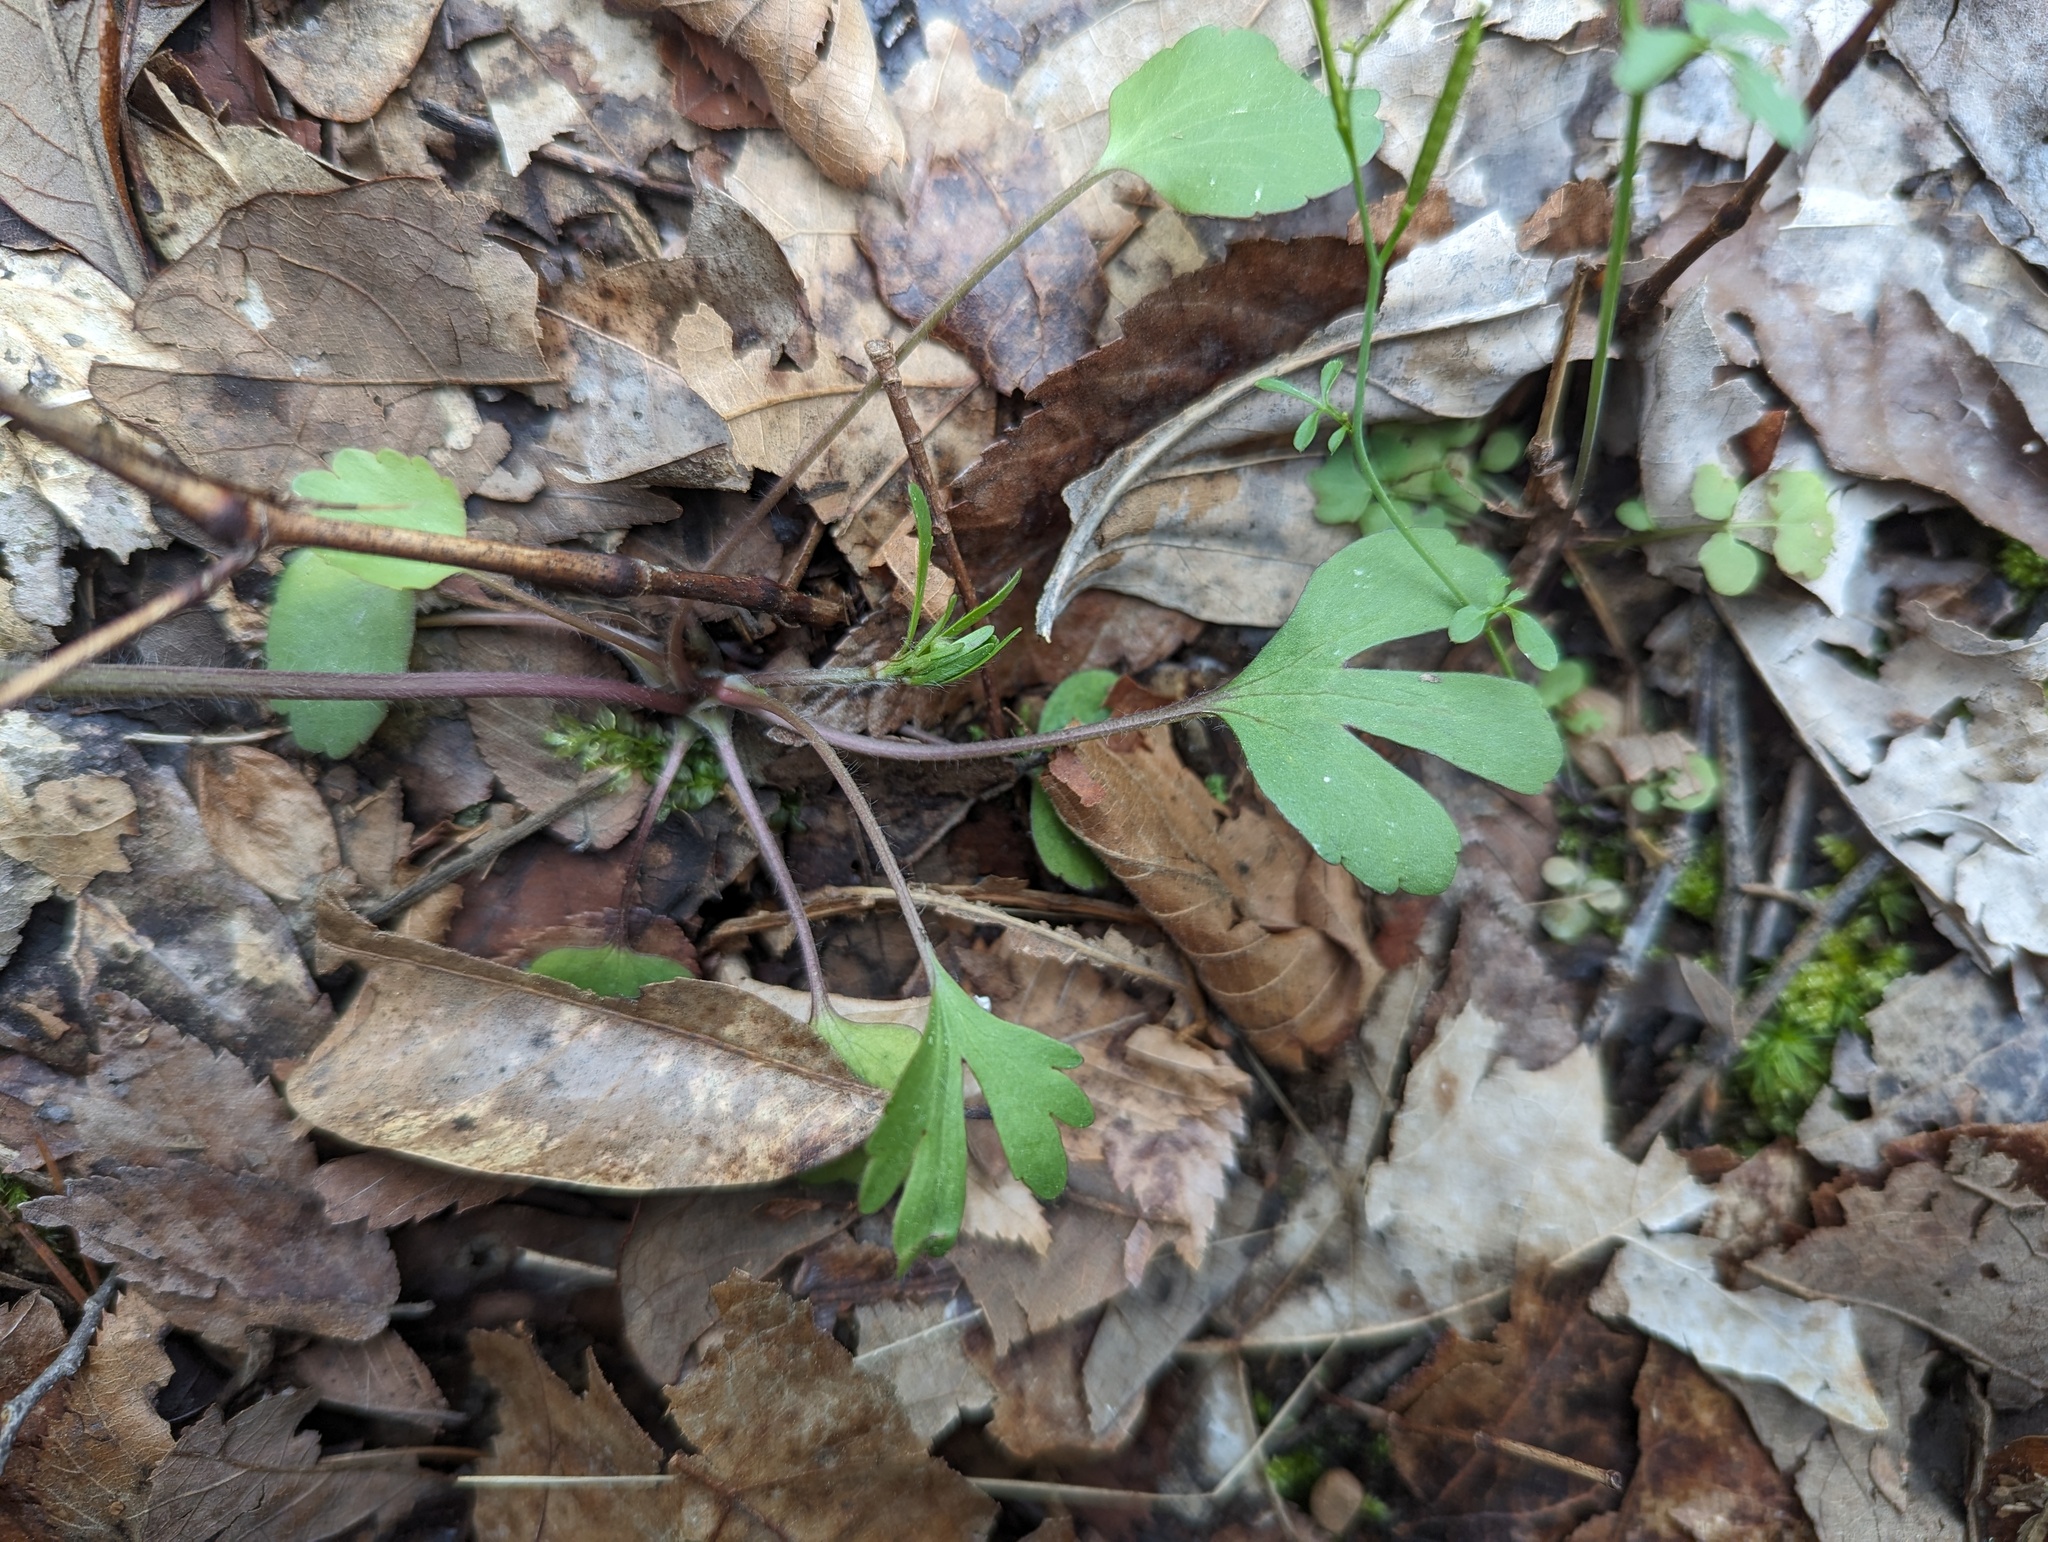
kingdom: Plantae
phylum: Tracheophyta
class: Magnoliopsida
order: Ranunculales
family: Ranunculaceae
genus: Ranunculus
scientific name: Ranunculus micranthus
